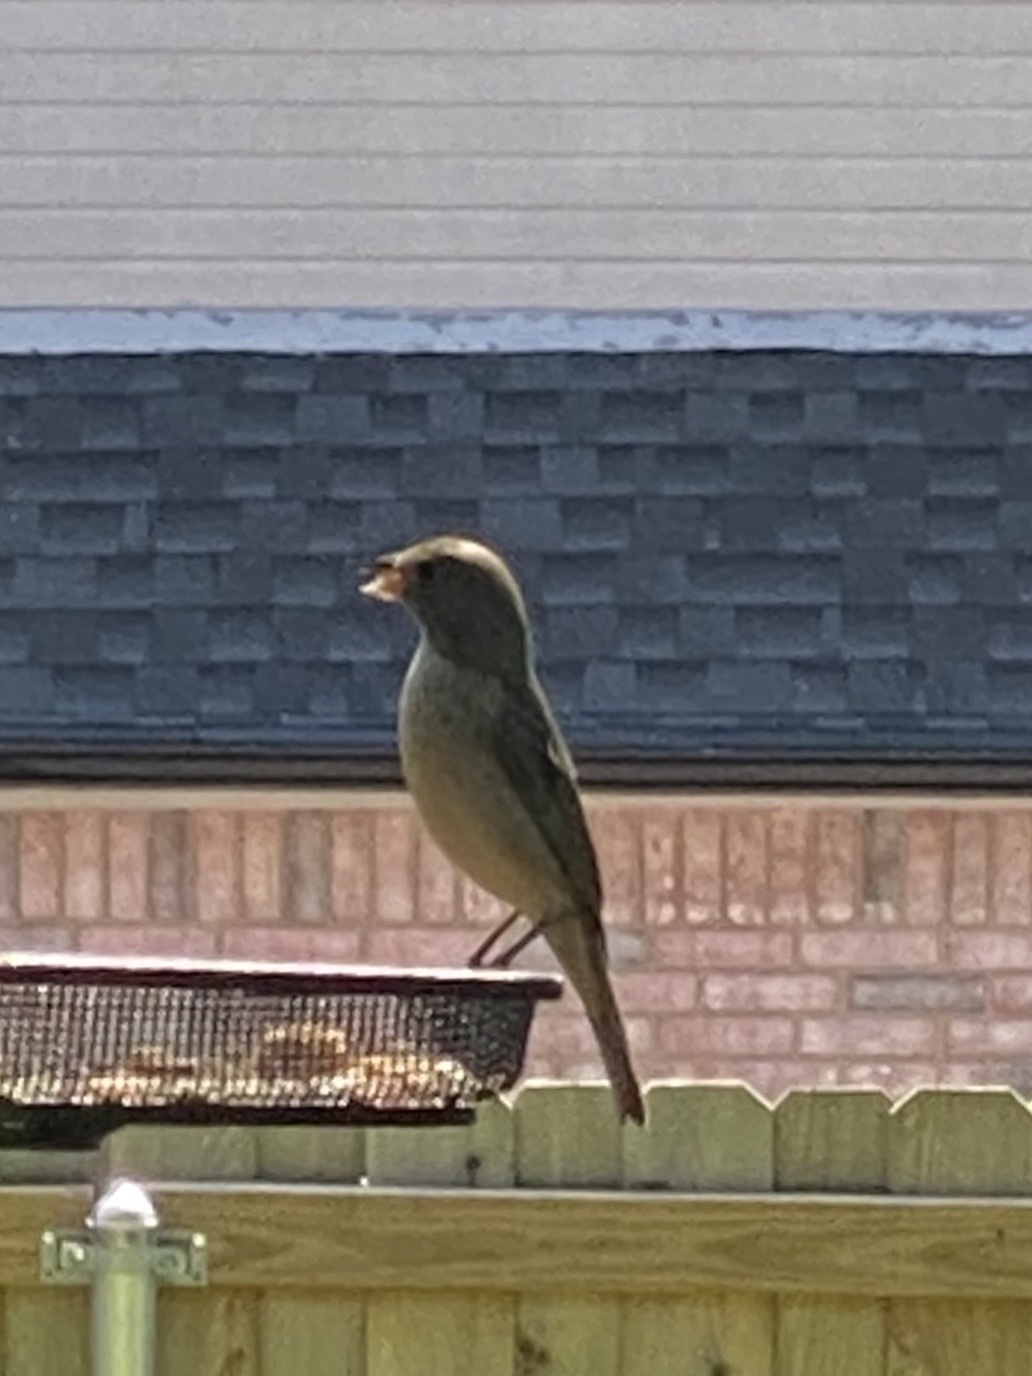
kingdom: Animalia
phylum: Chordata
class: Aves
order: Passeriformes
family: Passeridae
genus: Passer
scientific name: Passer domesticus
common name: House sparrow
